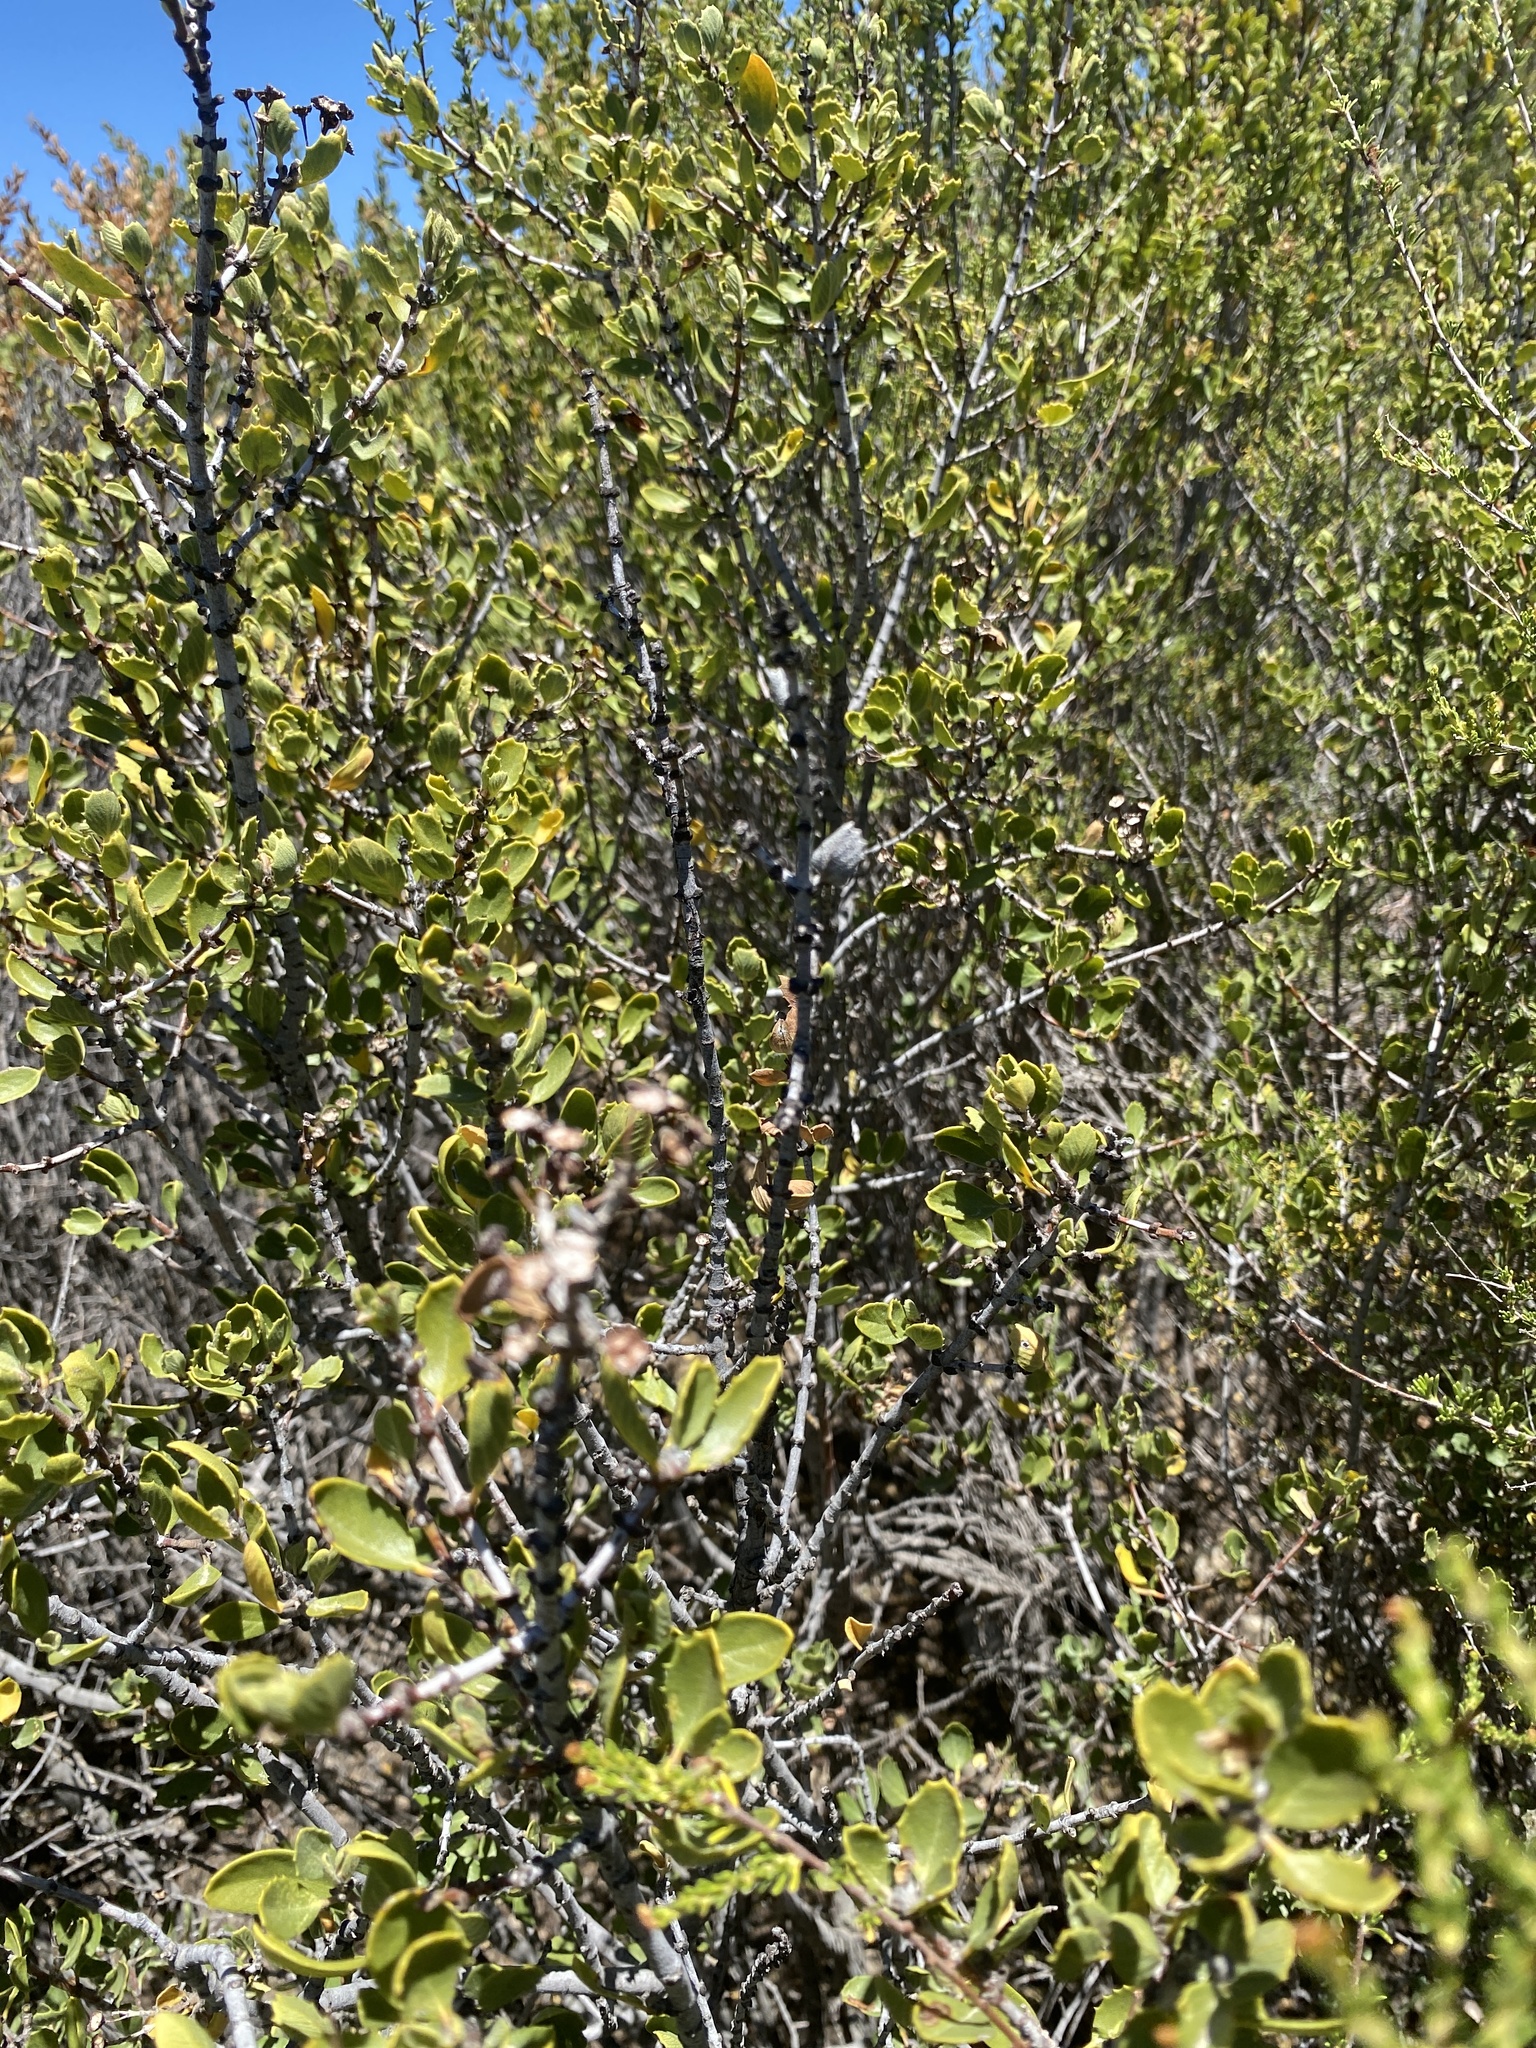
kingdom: Plantae
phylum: Tracheophyta
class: Magnoliopsida
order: Rosales
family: Rhamnaceae
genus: Ceanothus
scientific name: Ceanothus perplexans
